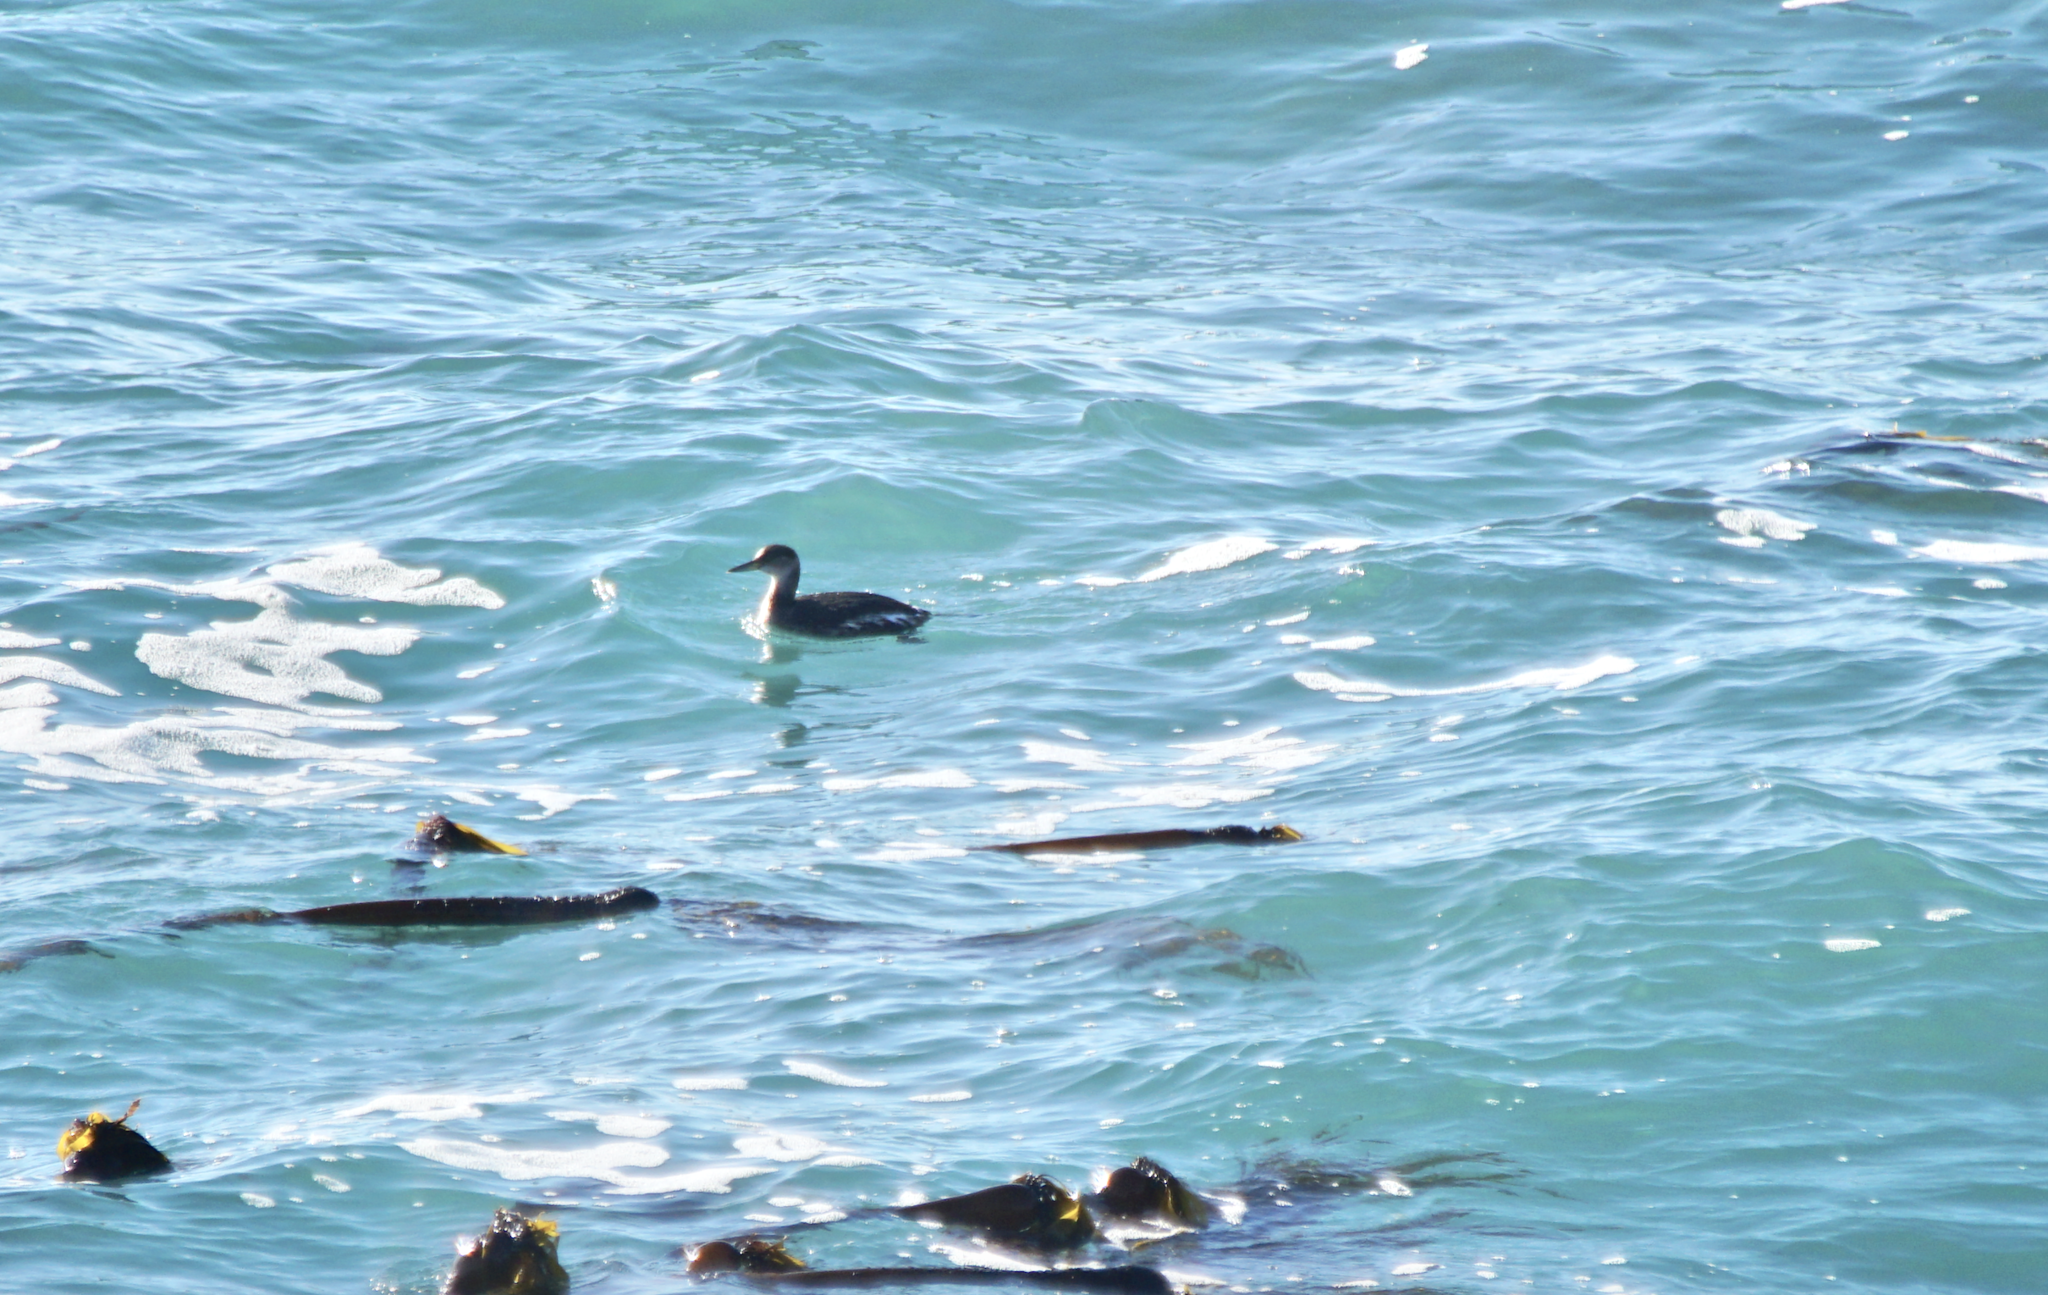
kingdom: Animalia
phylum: Chordata
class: Aves
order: Podicipediformes
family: Podicipedidae
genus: Podiceps
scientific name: Podiceps grisegena
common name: Red-necked grebe
